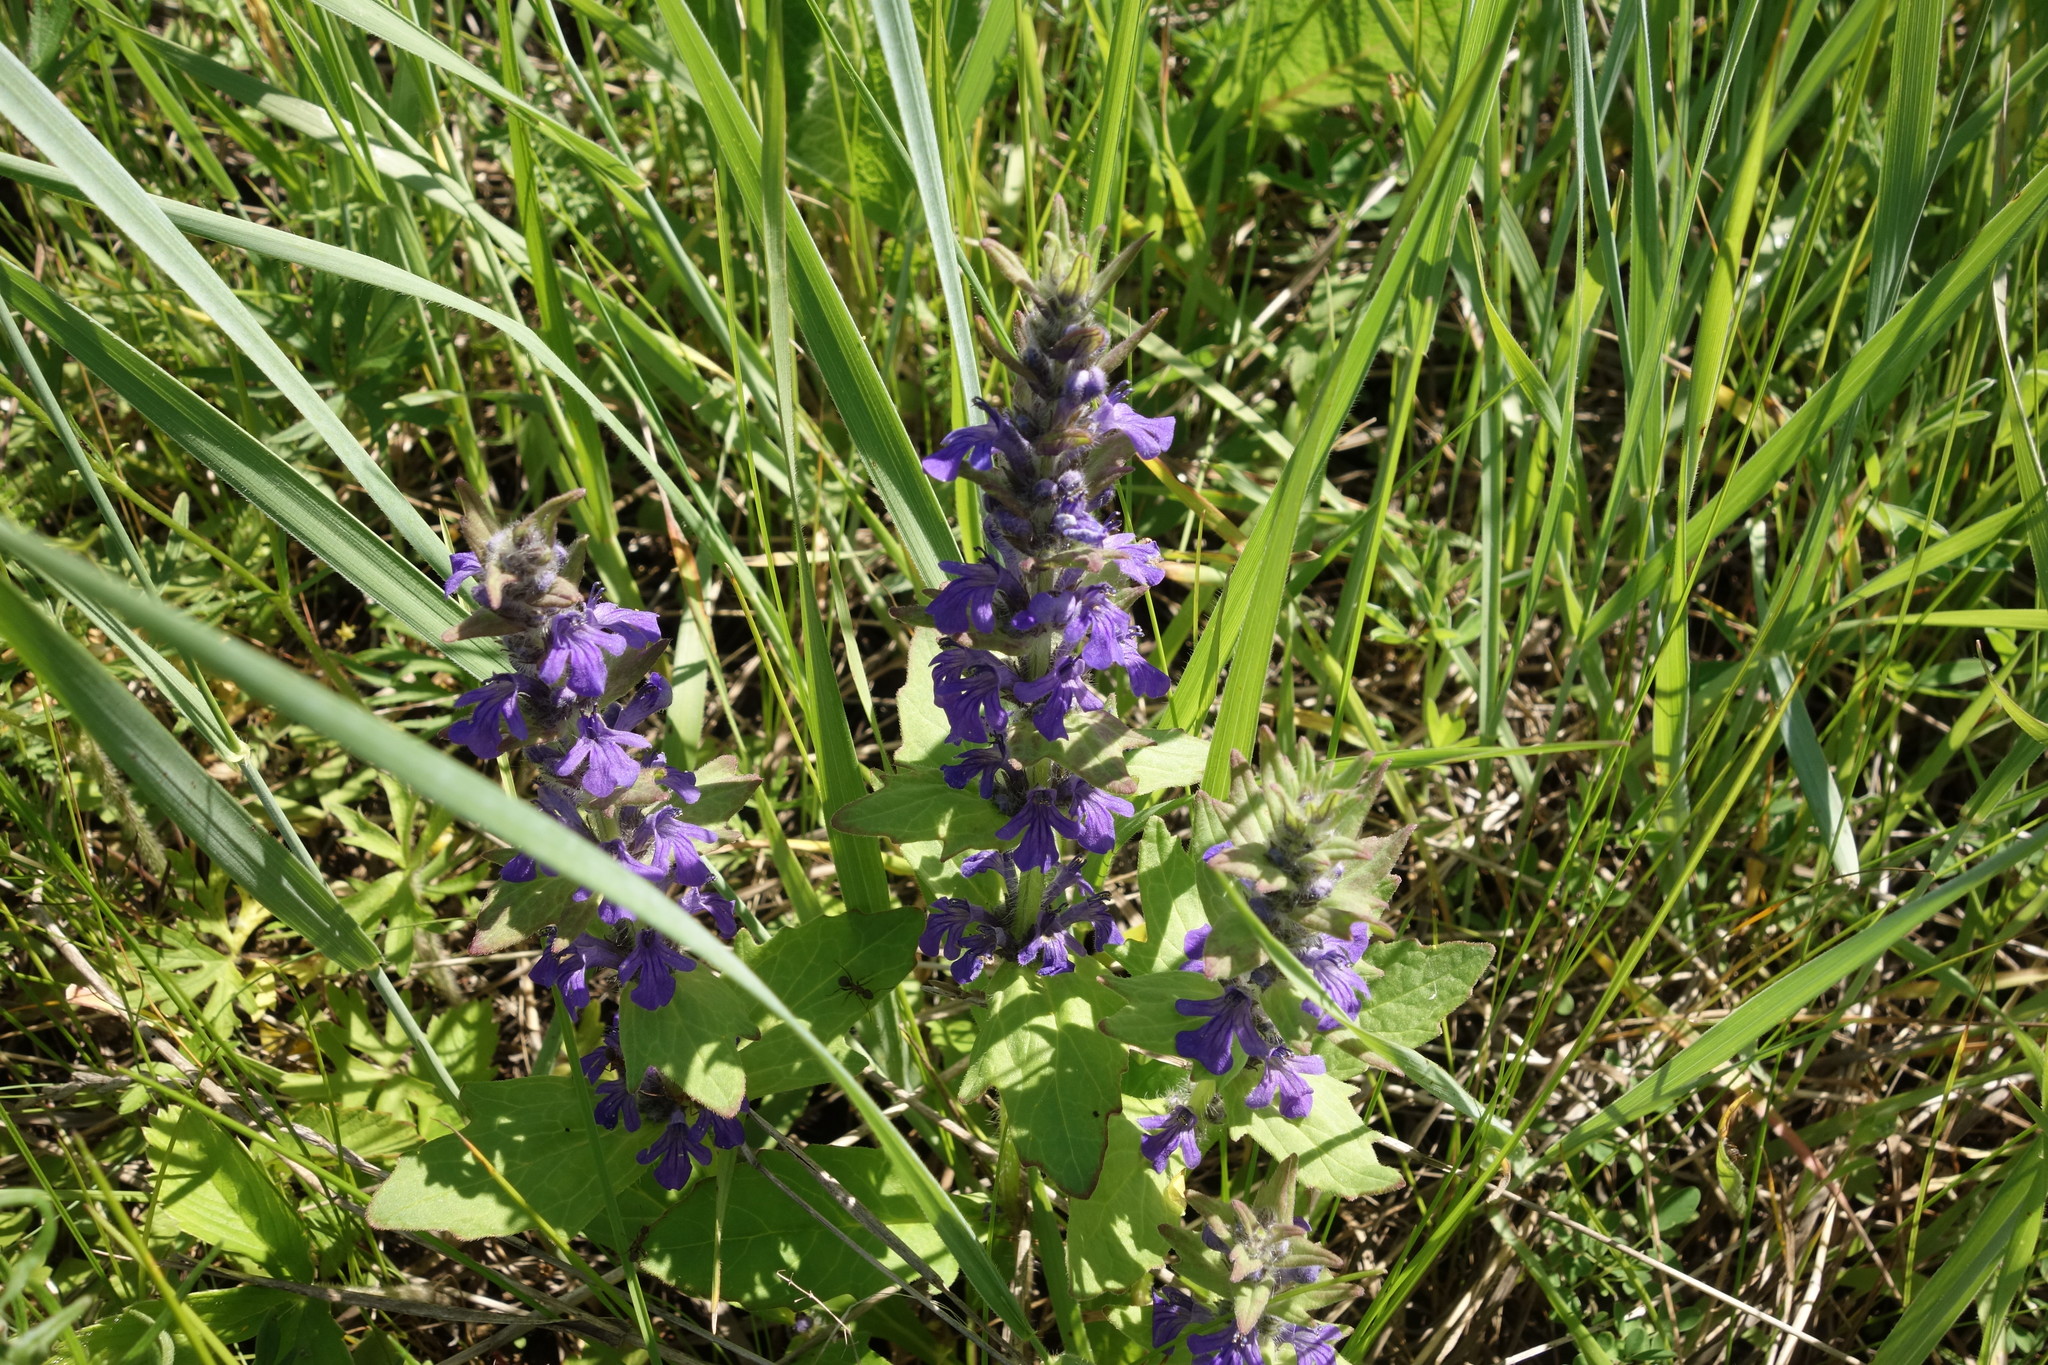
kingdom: Plantae
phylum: Tracheophyta
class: Magnoliopsida
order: Lamiales
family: Lamiaceae
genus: Ajuga
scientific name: Ajuga genevensis
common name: Blue bugle
